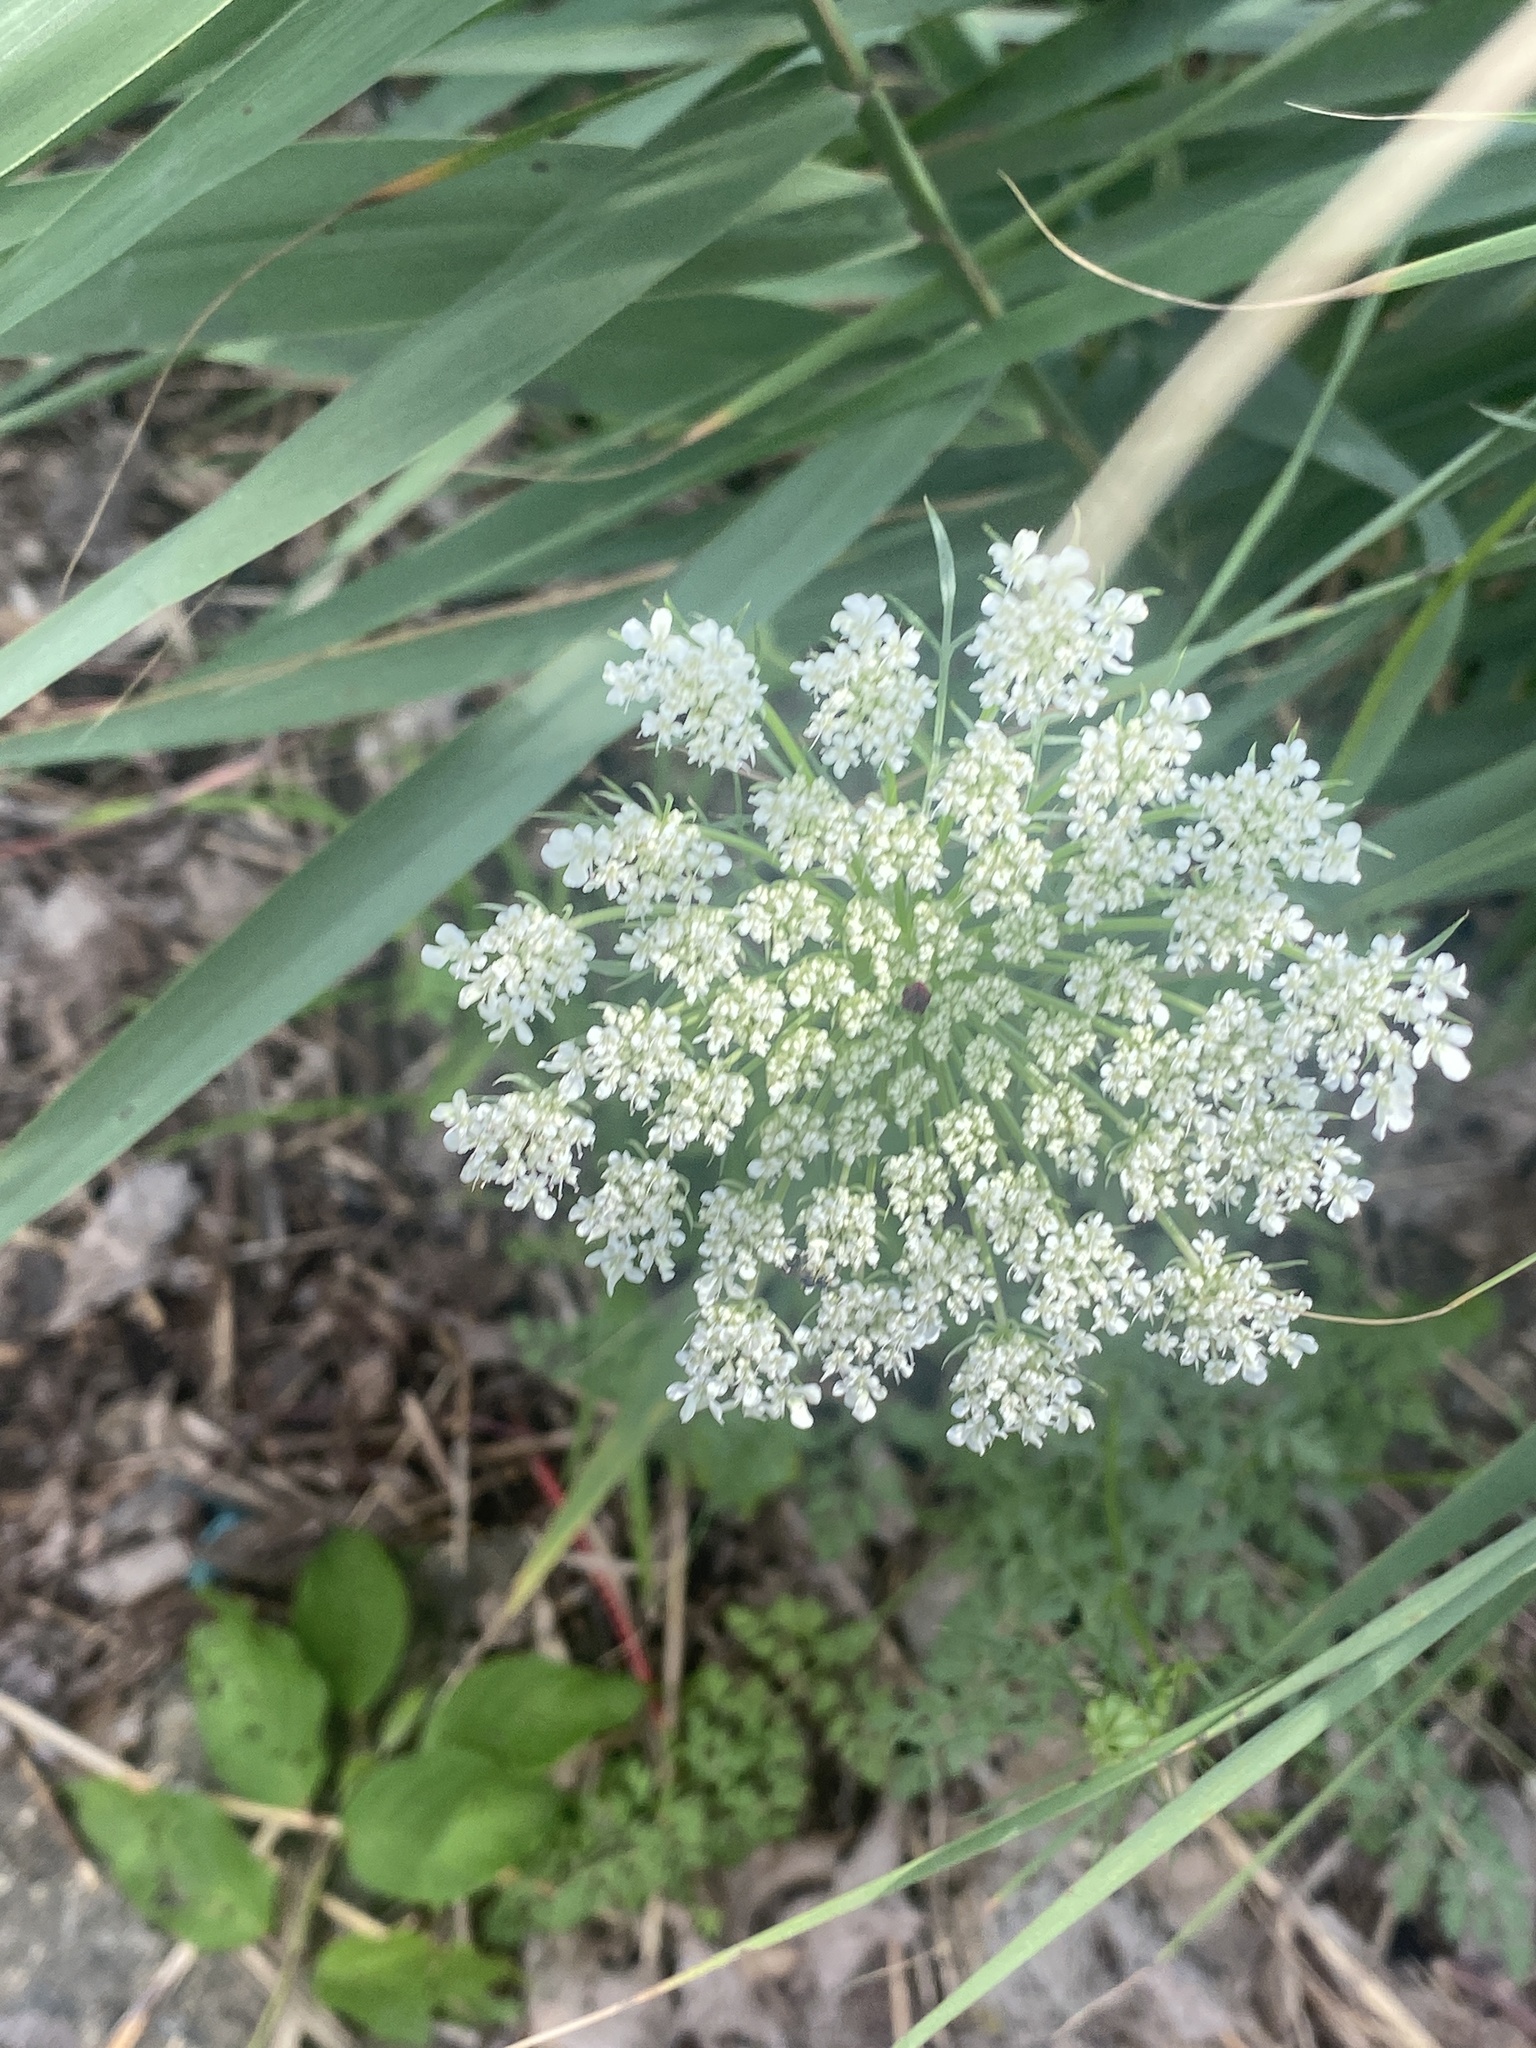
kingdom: Plantae
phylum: Tracheophyta
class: Magnoliopsida
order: Apiales
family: Apiaceae
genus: Daucus
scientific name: Daucus carota
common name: Wild carrot
